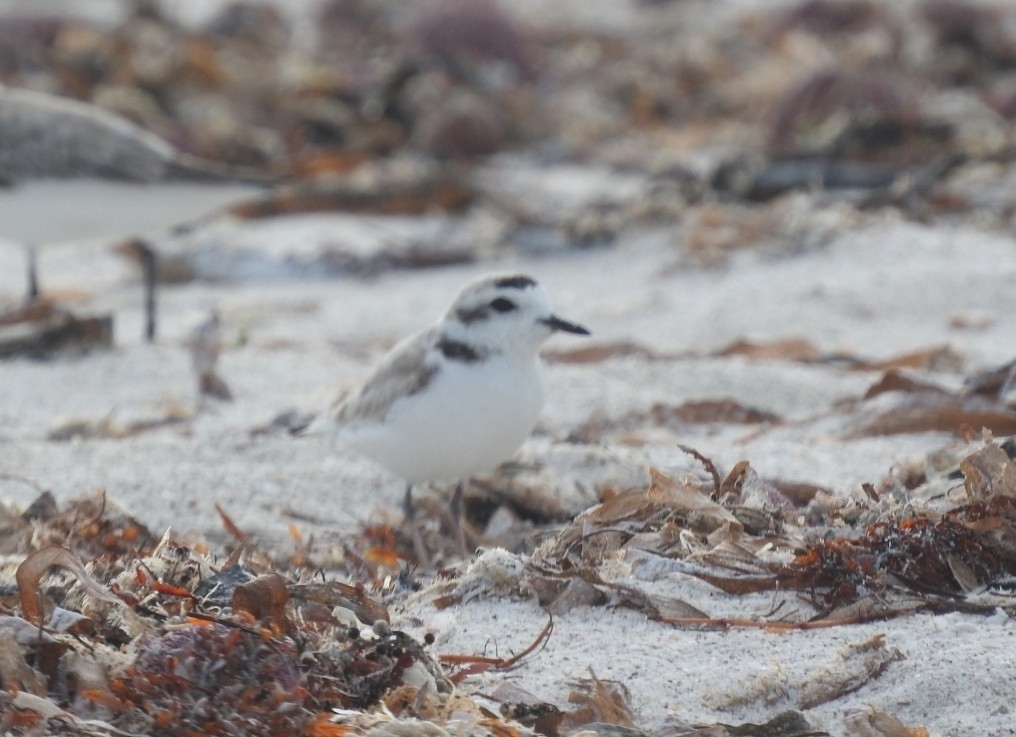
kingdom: Animalia
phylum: Chordata
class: Aves
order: Charadriiformes
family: Charadriidae
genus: Anarhynchus
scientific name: Anarhynchus
